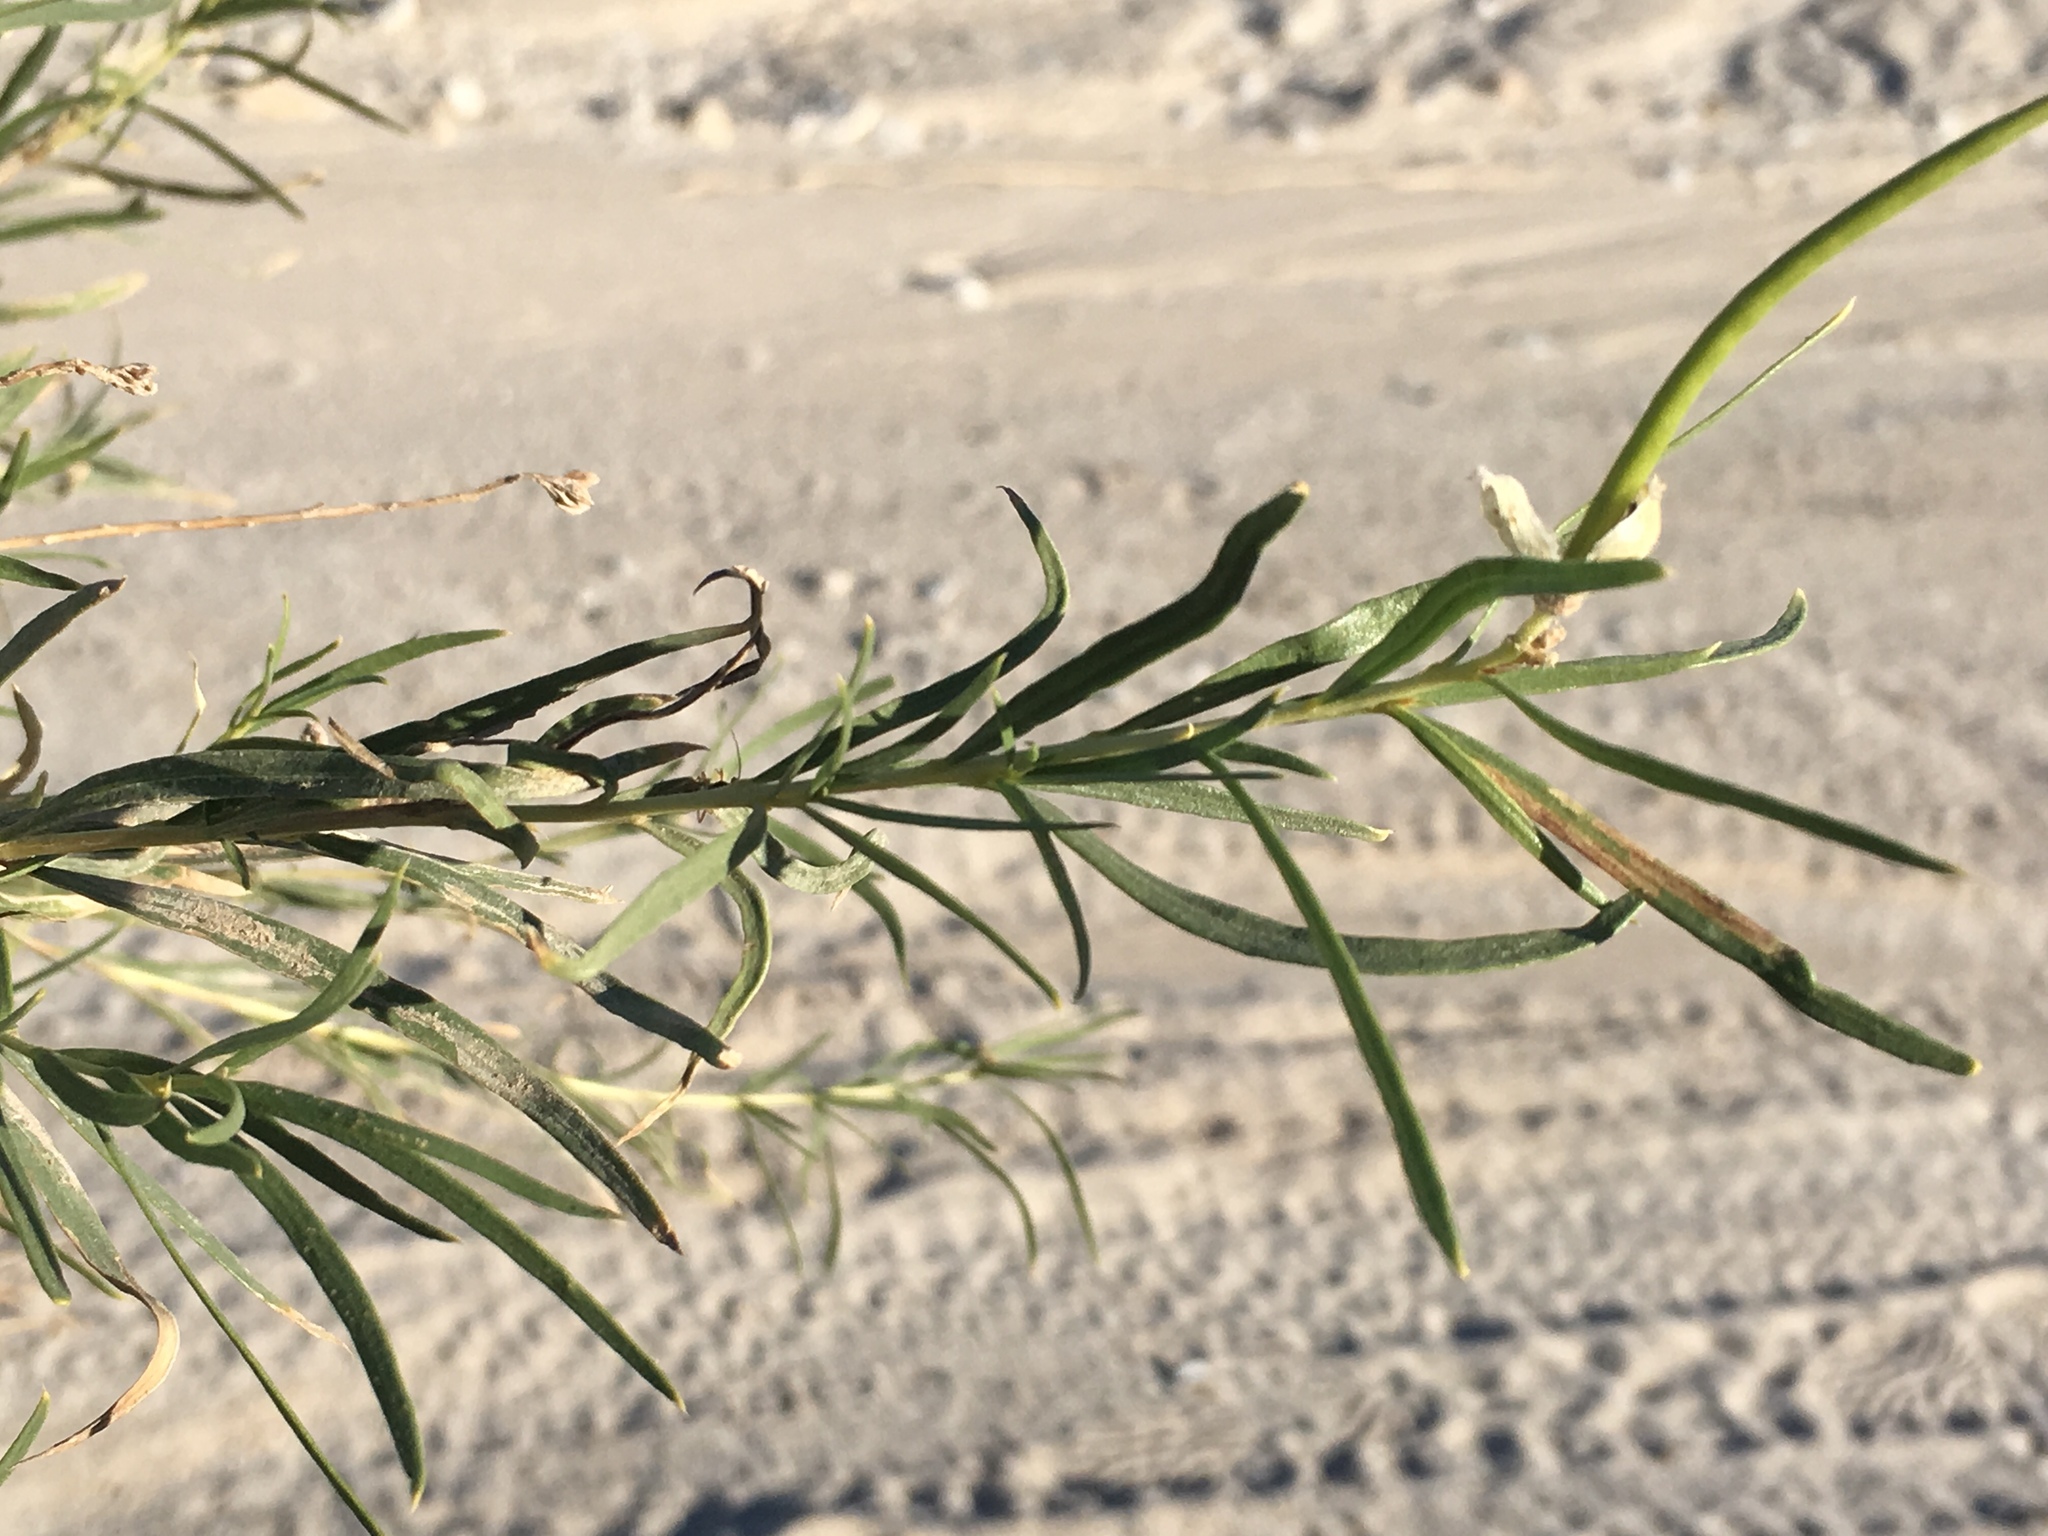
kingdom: Plantae
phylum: Tracheophyta
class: Magnoliopsida
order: Lamiales
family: Bignoniaceae
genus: Chilopsis
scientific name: Chilopsis linearis
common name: Desert-willow
